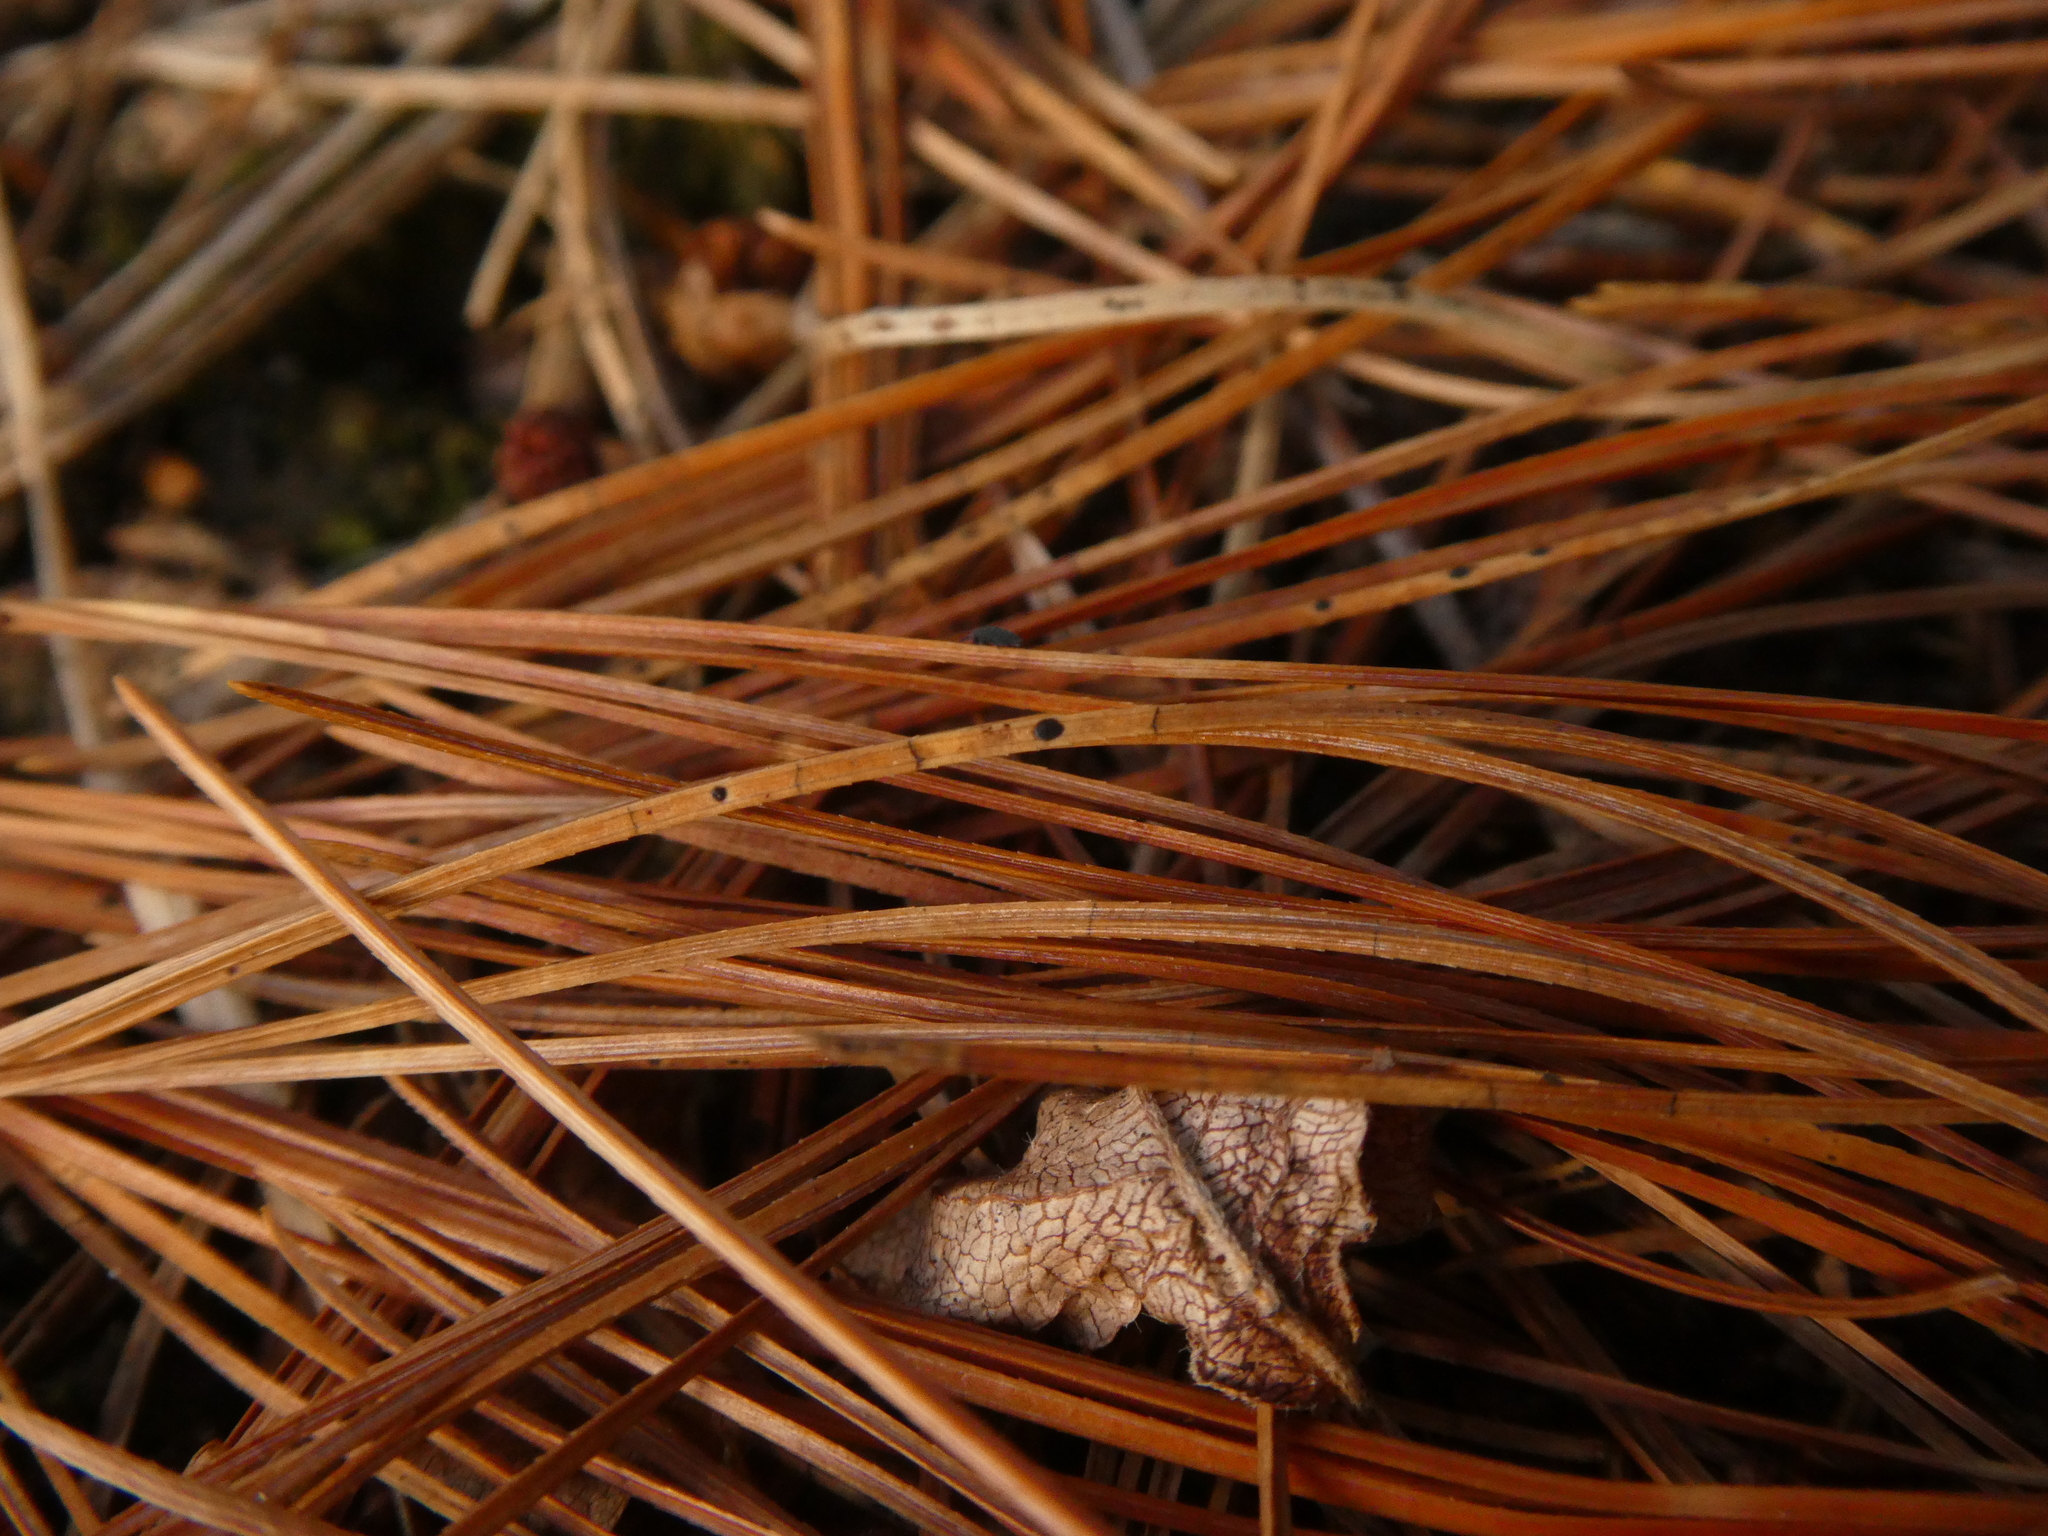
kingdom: Fungi
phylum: Ascomycota
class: Leotiomycetes
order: Rhytismatales
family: Rhytismataceae
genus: Lophodermium
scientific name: Lophodermium pinastri
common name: Pine needle split
